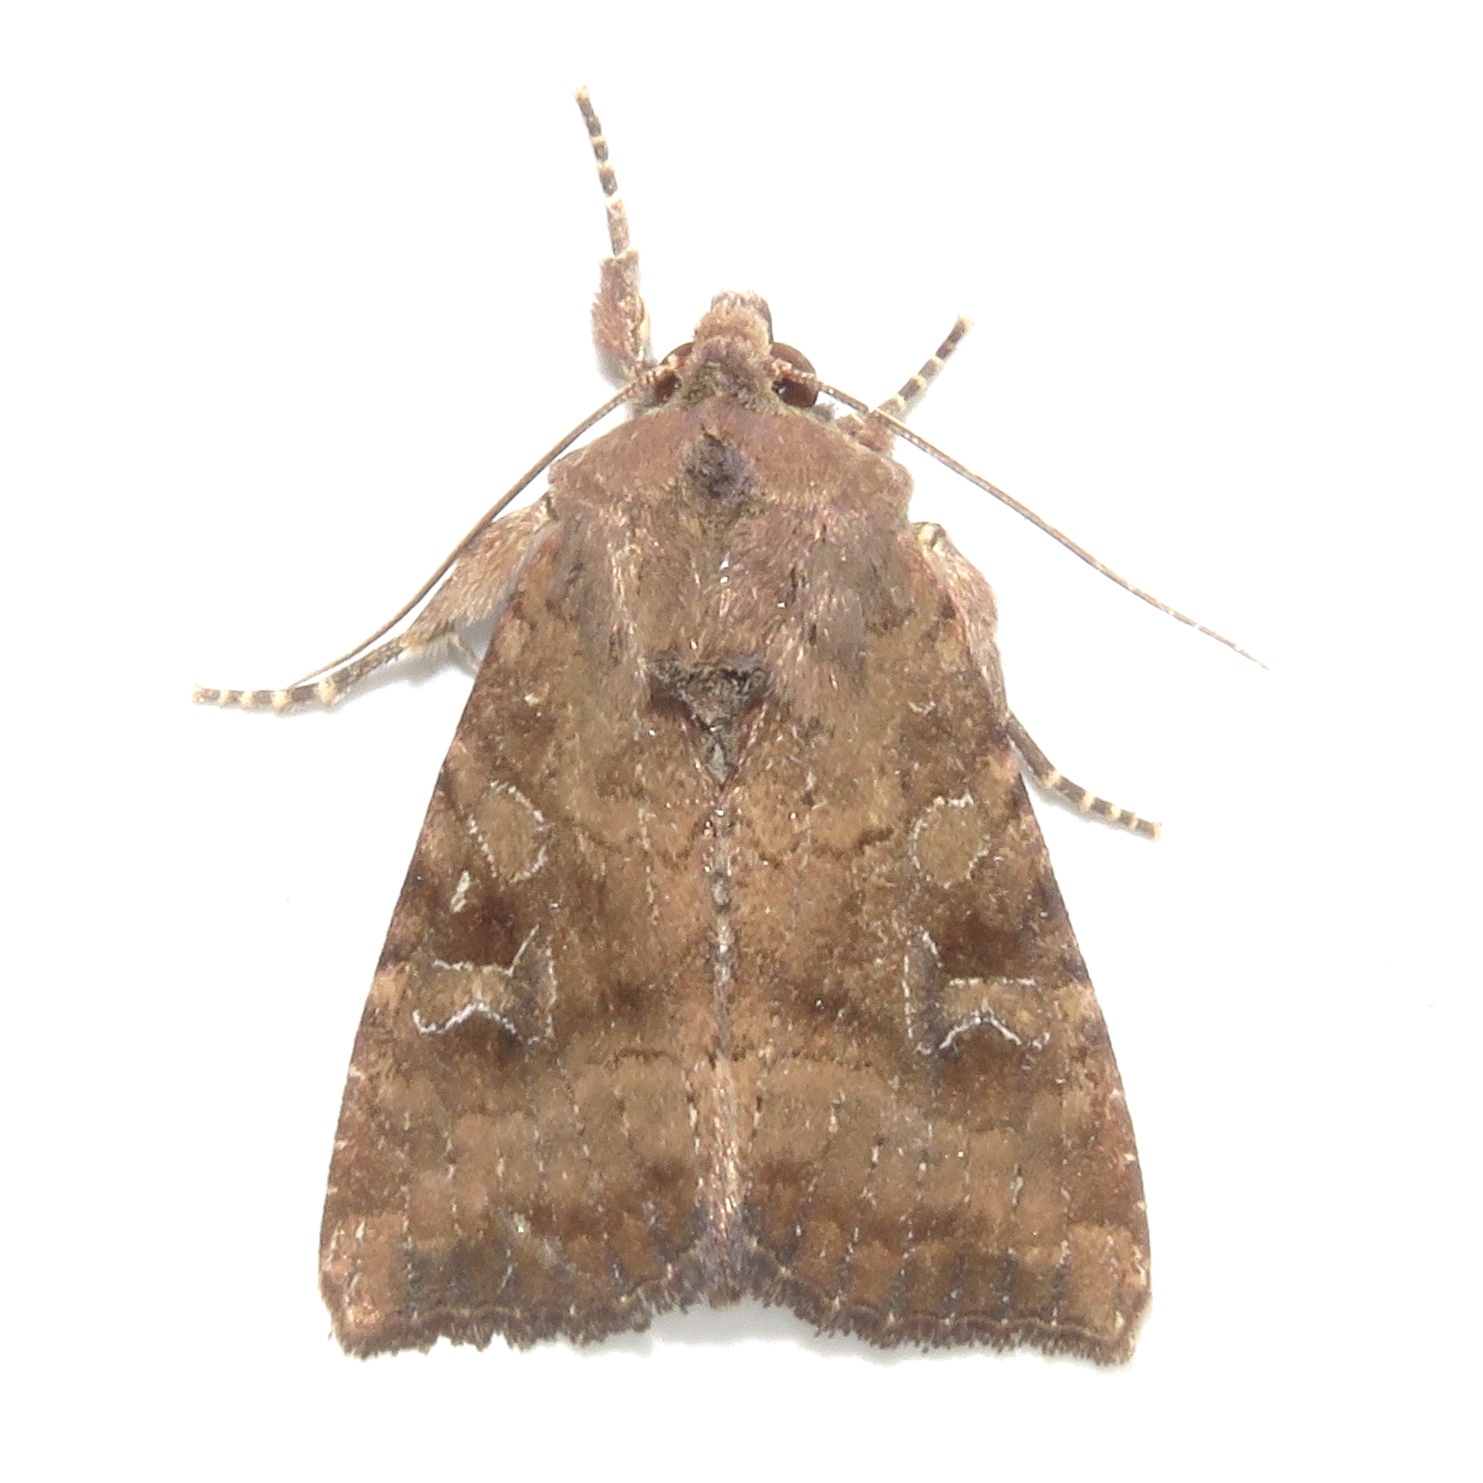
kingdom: Animalia
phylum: Arthropoda
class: Insecta
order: Lepidoptera
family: Noctuidae
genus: Loscopia
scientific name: Loscopia velata
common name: Veiled ear moth
